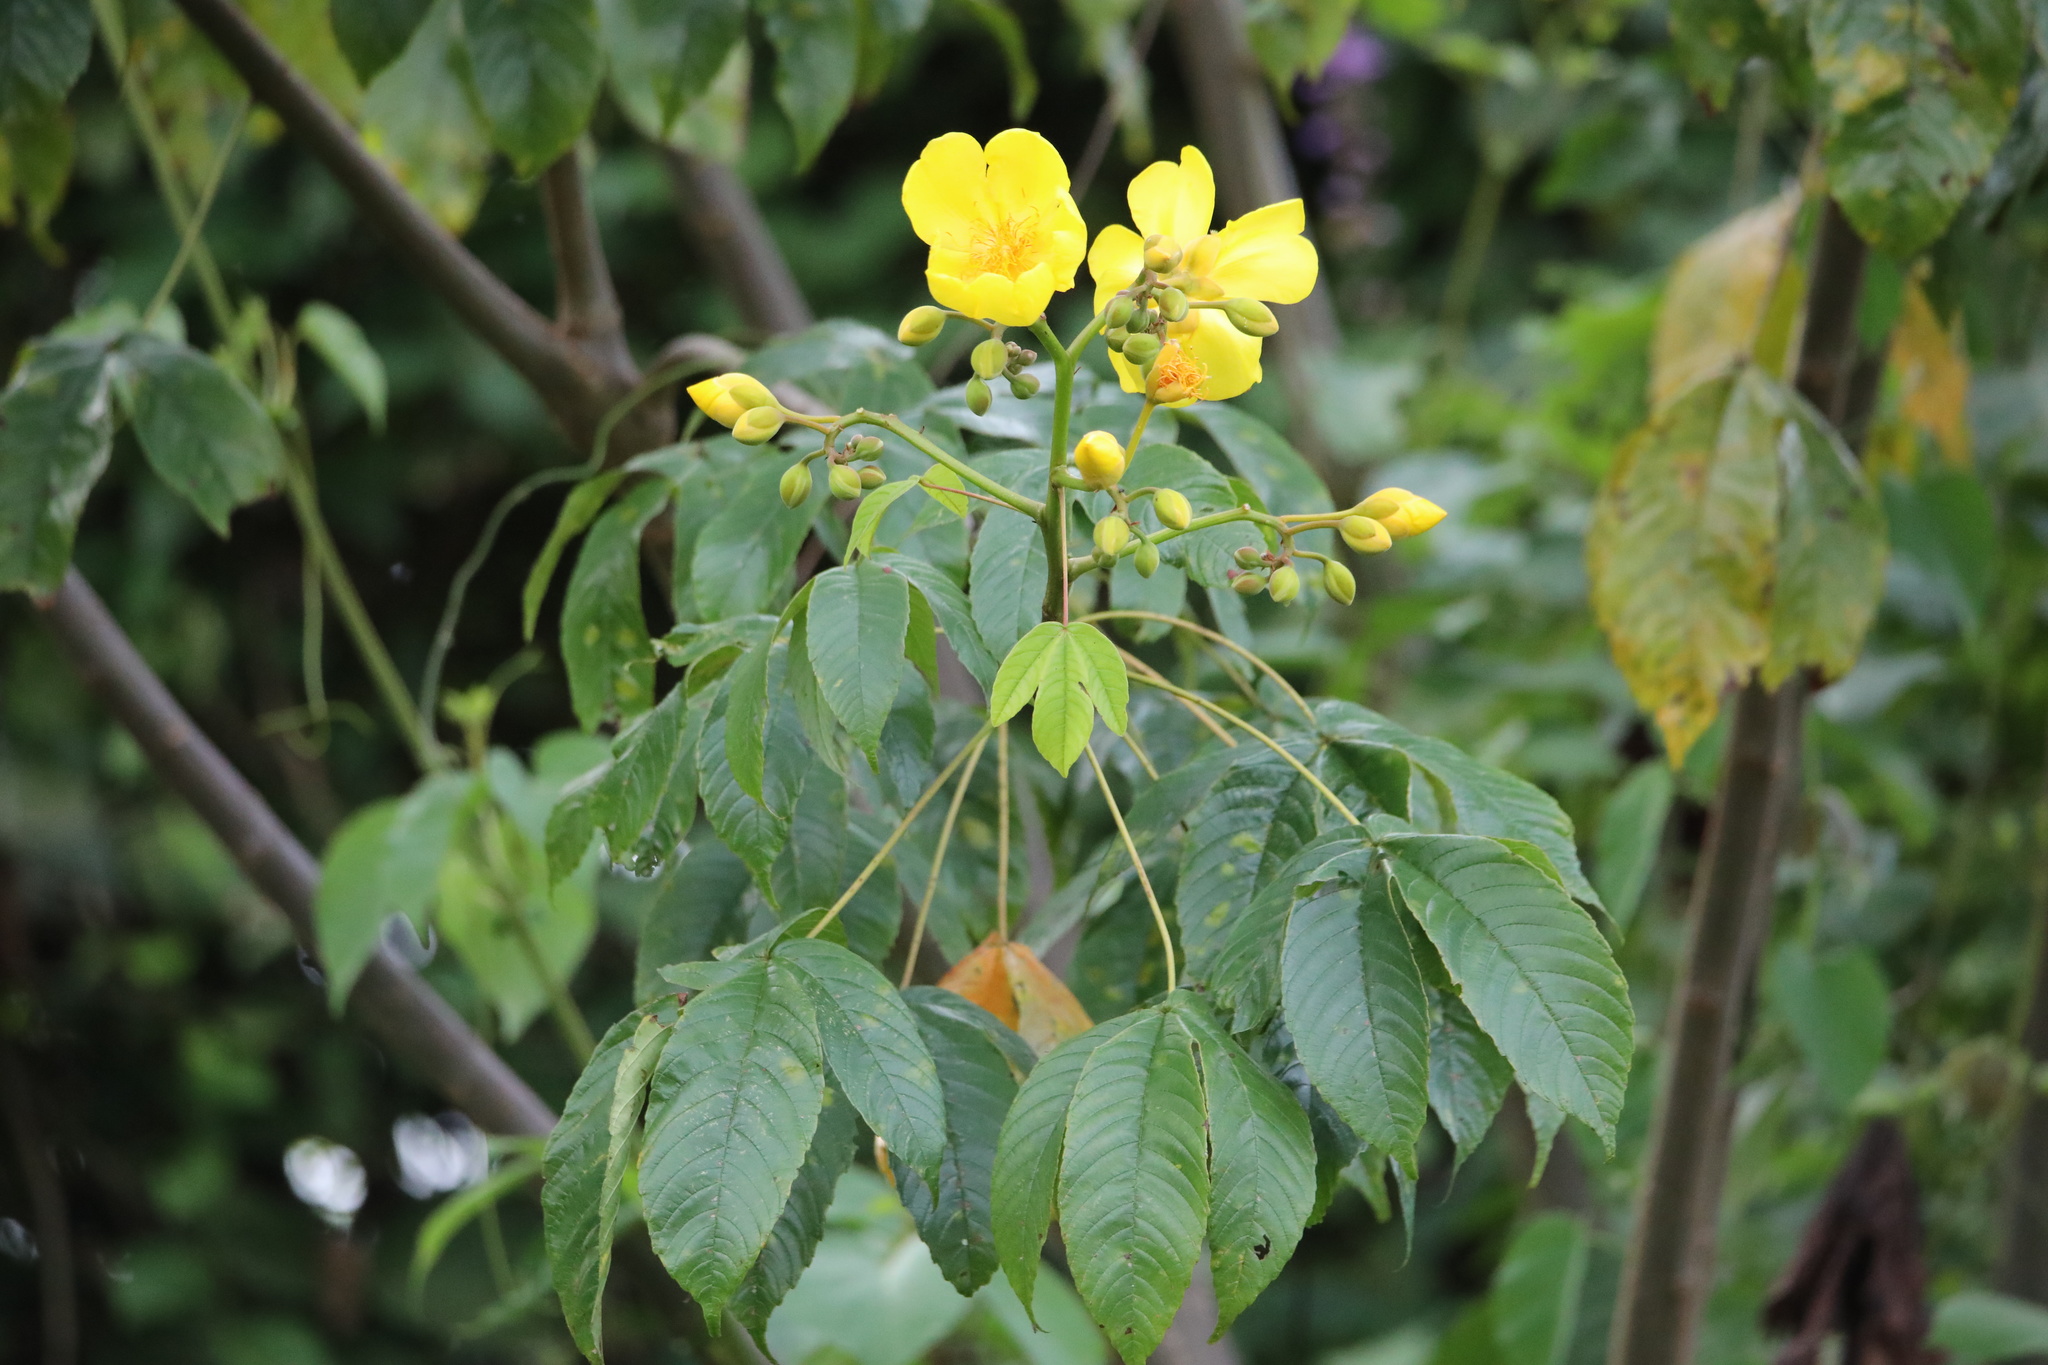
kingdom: Plantae
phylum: Tracheophyta
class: Magnoliopsida
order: Malvales
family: Cochlospermaceae
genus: Cochlospermum
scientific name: Cochlospermum vitifolium
